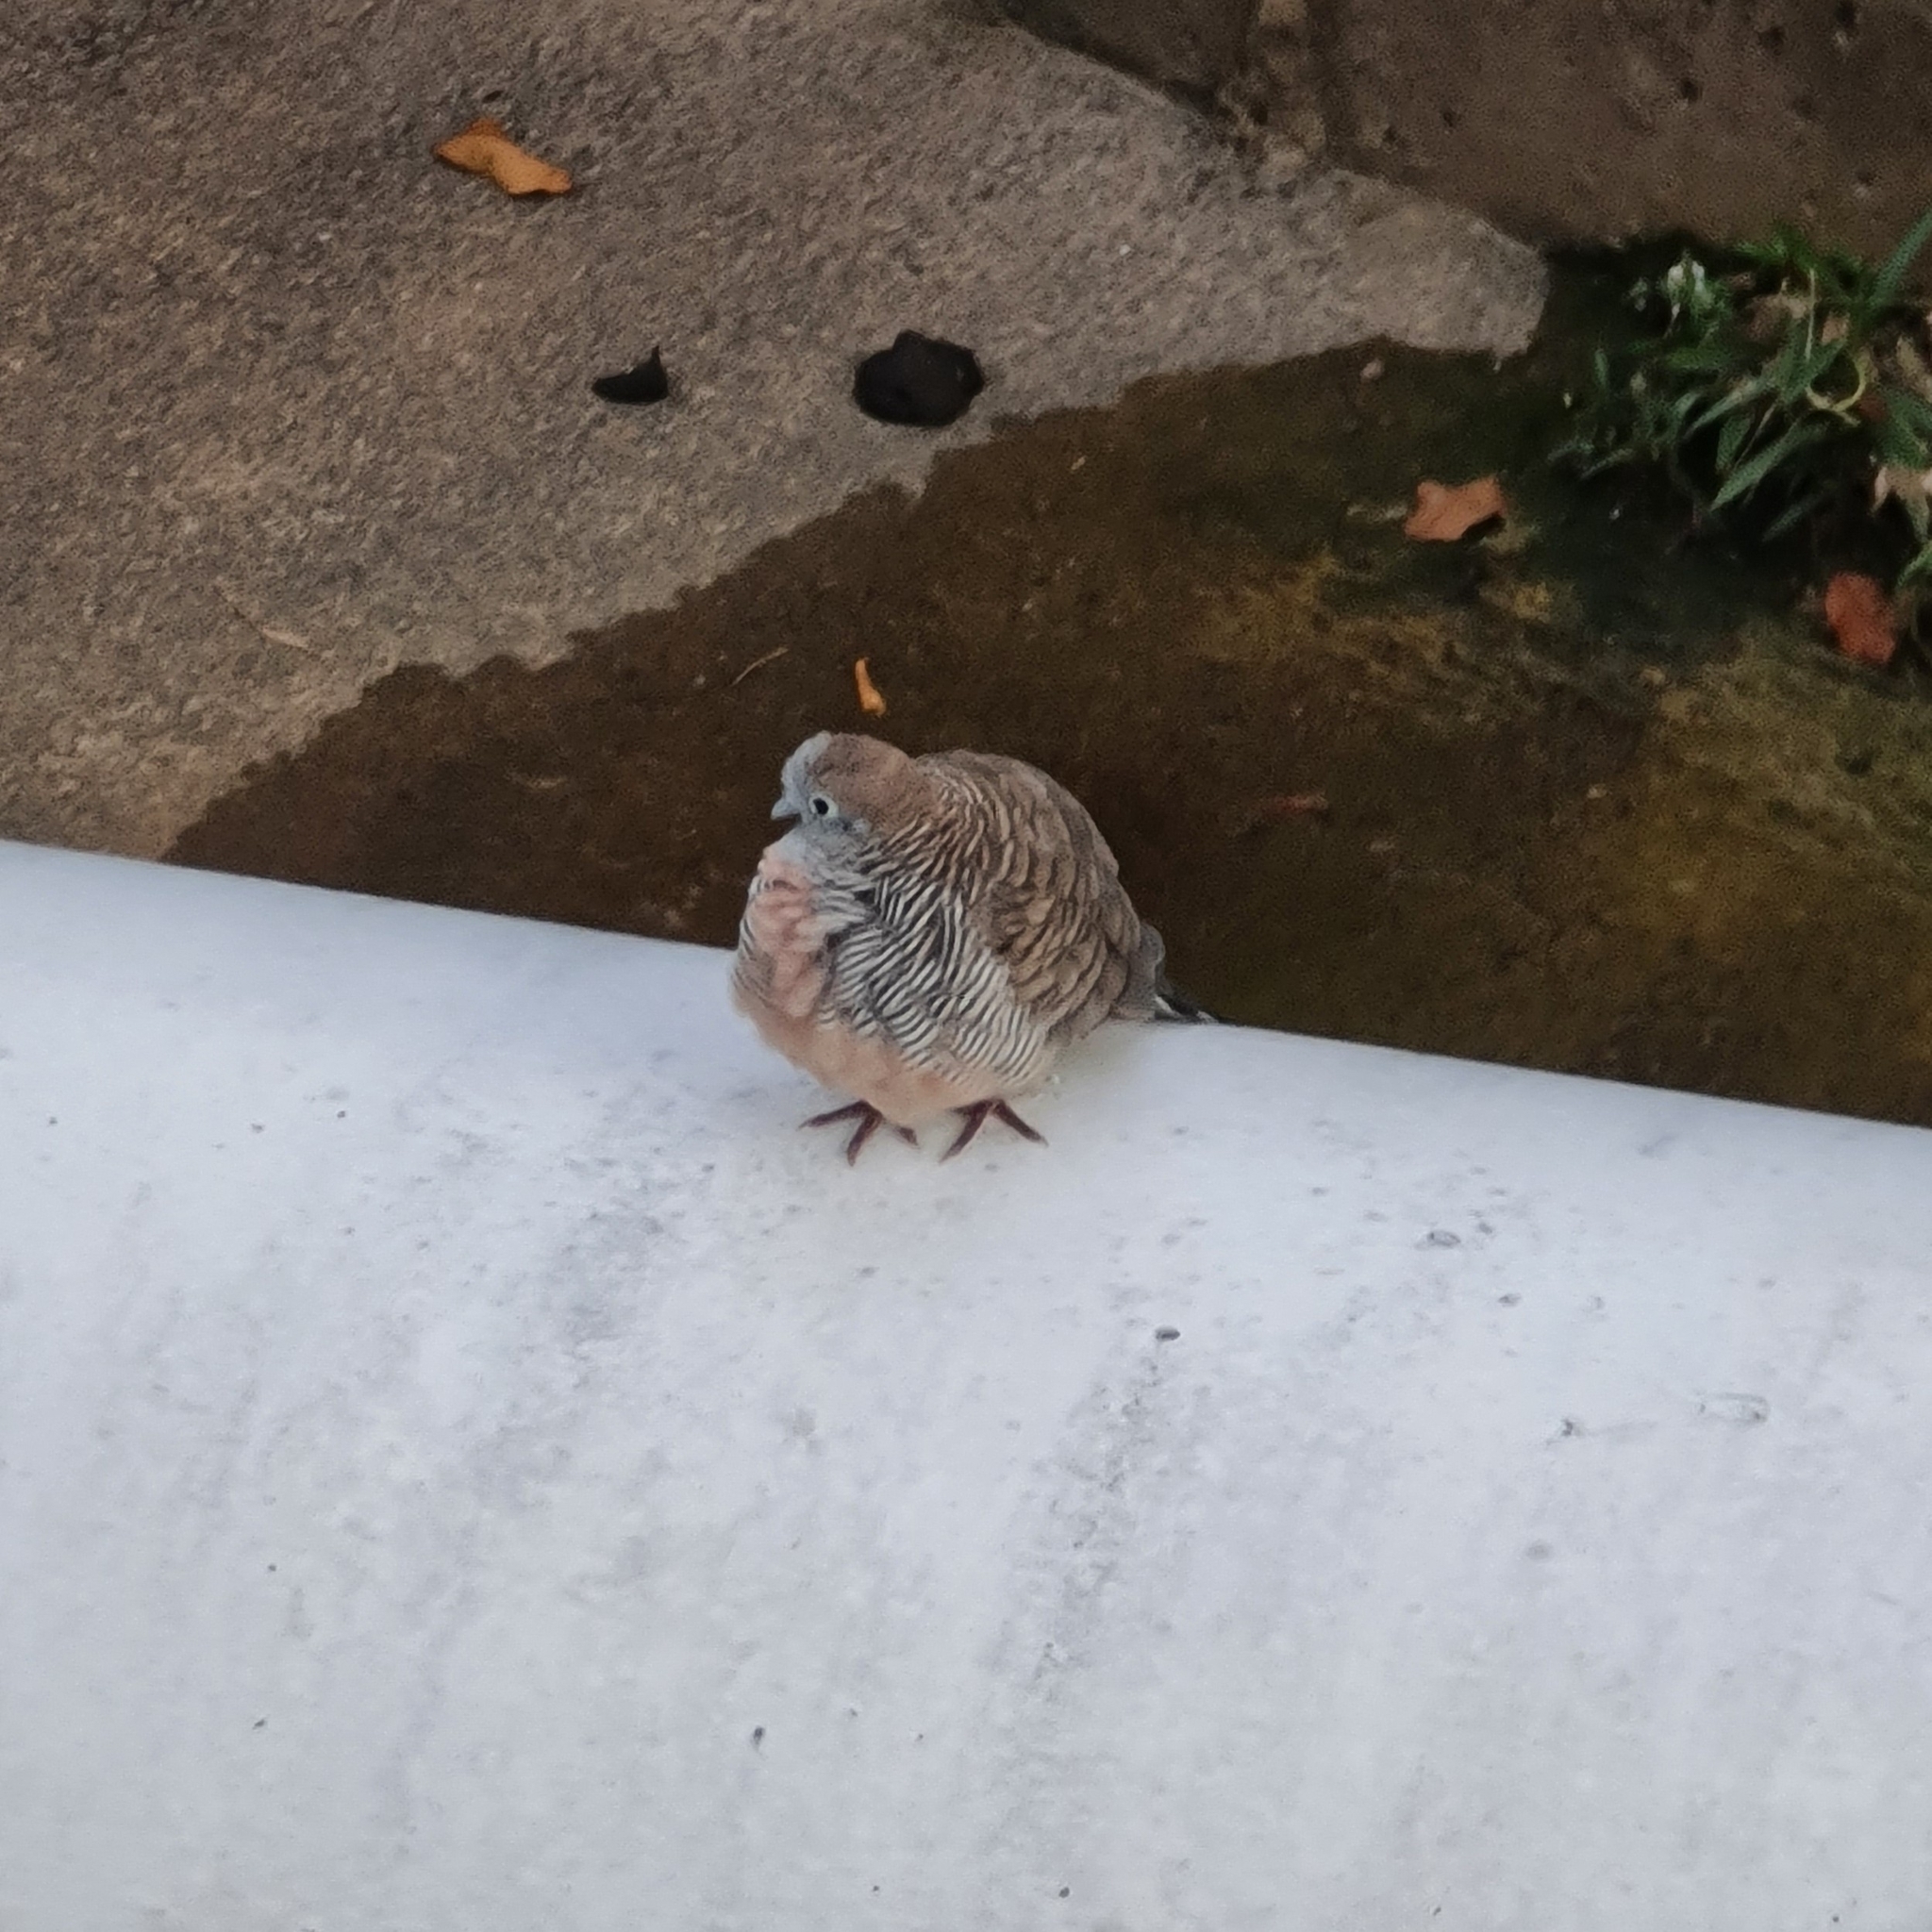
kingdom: Animalia
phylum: Chordata
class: Aves
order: Columbiformes
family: Columbidae
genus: Geopelia
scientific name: Geopelia striata
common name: Zebra dove
